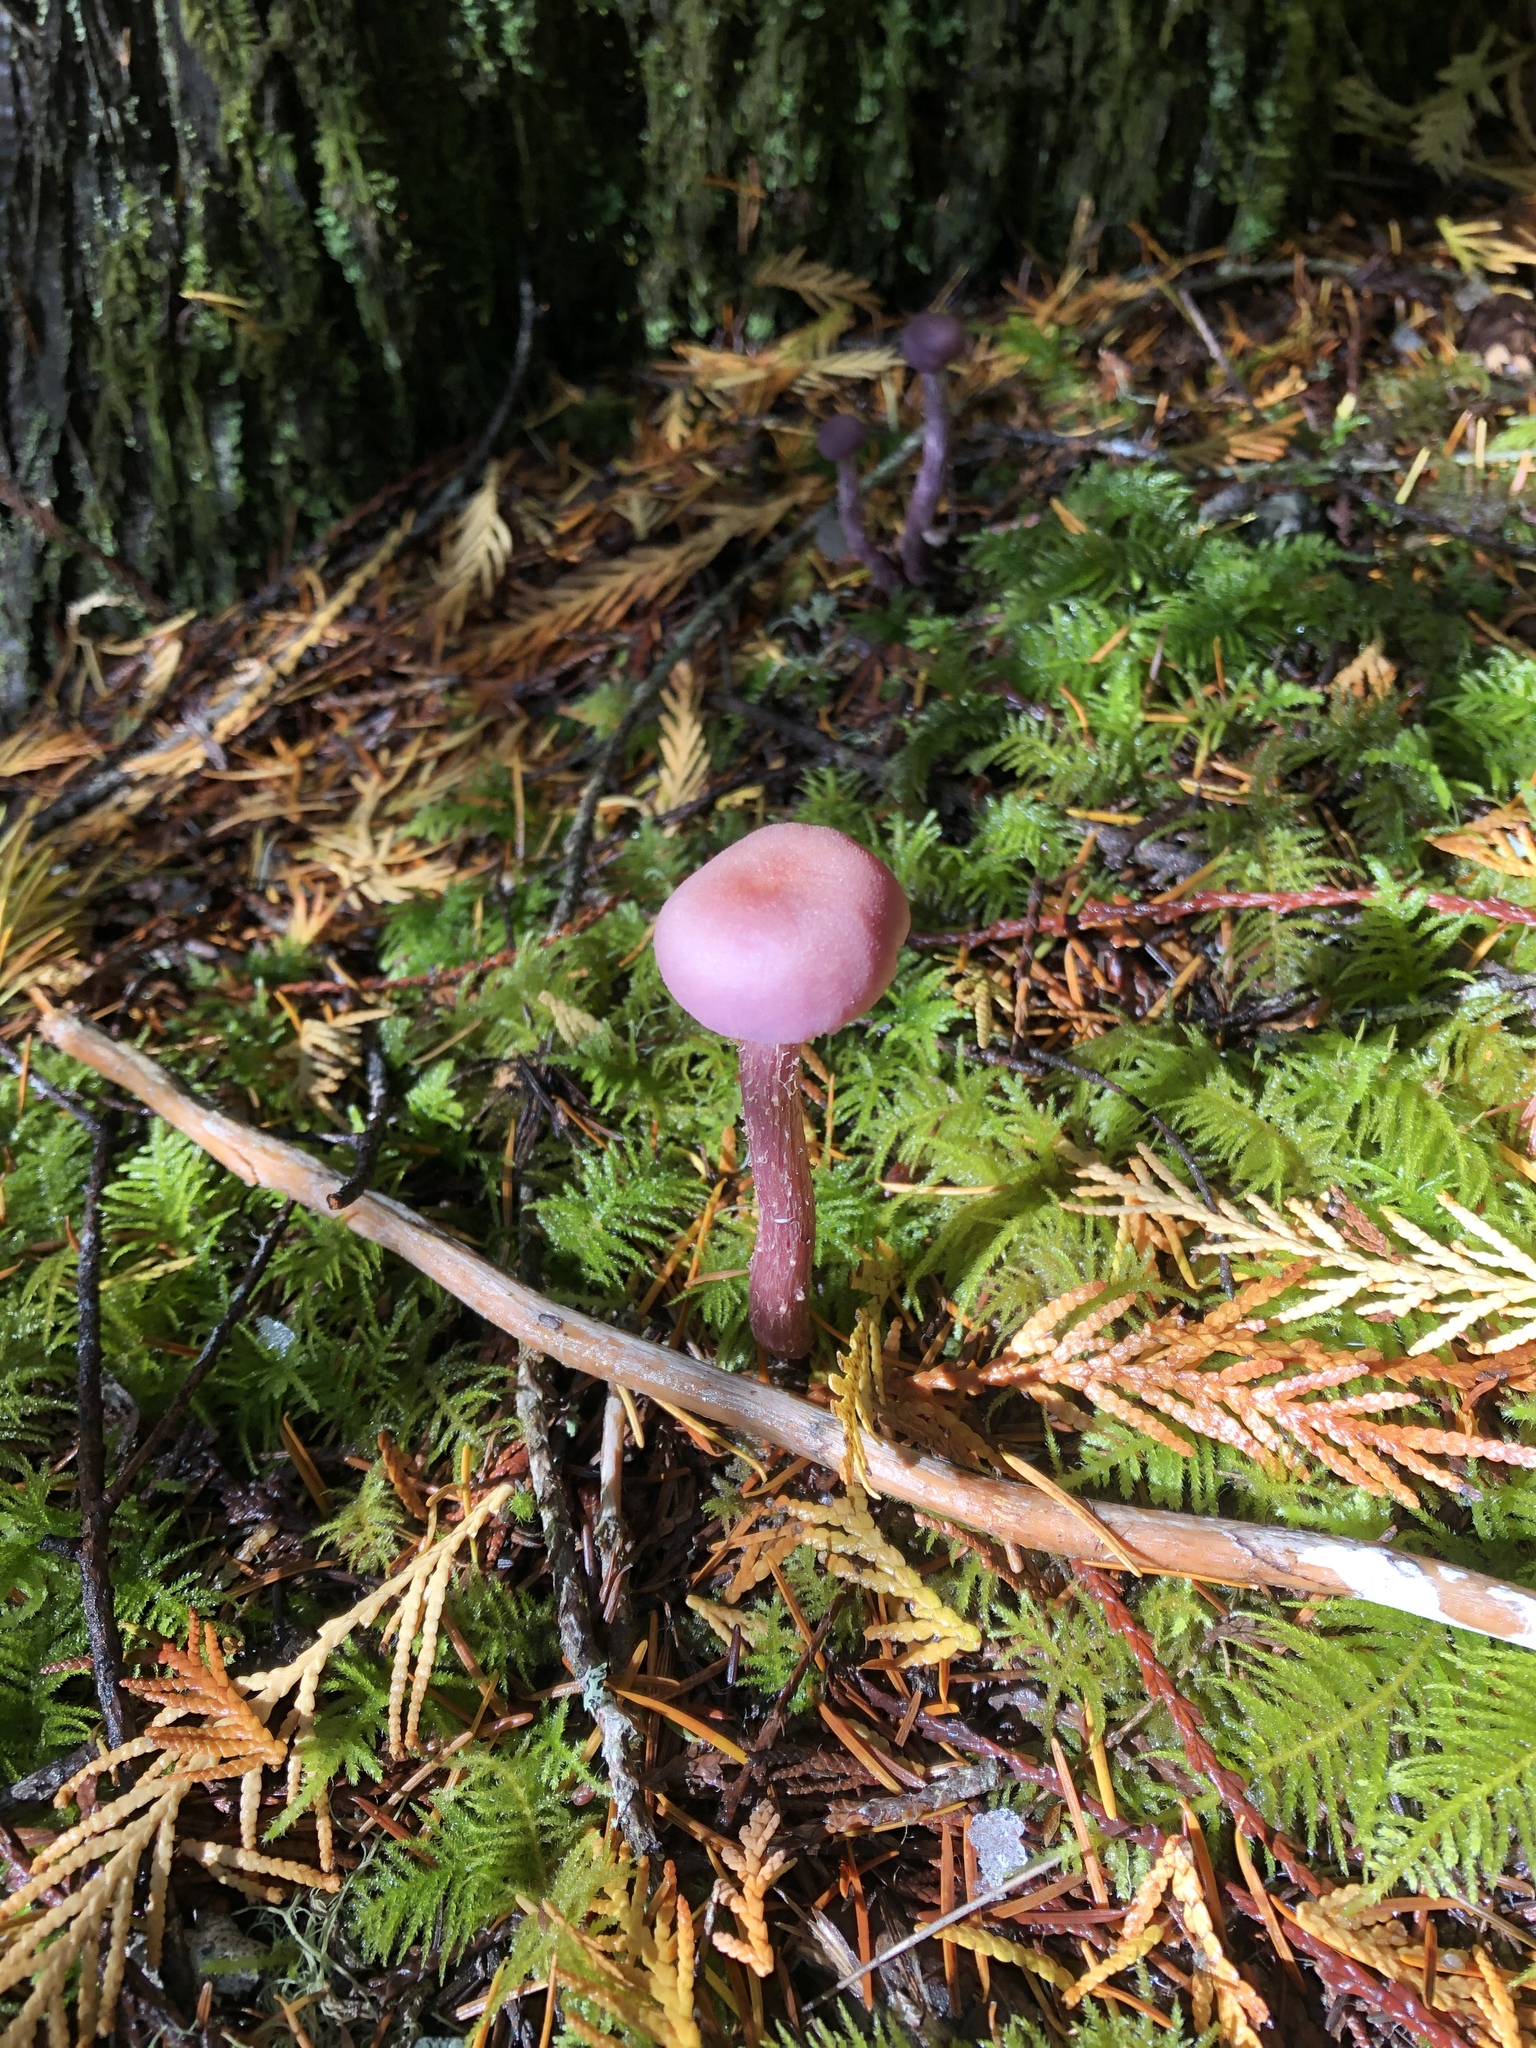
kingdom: Fungi
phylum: Basidiomycota
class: Agaricomycetes
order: Agaricales
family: Hydnangiaceae
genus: Laccaria
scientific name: Laccaria amethysteo-occidentalis
